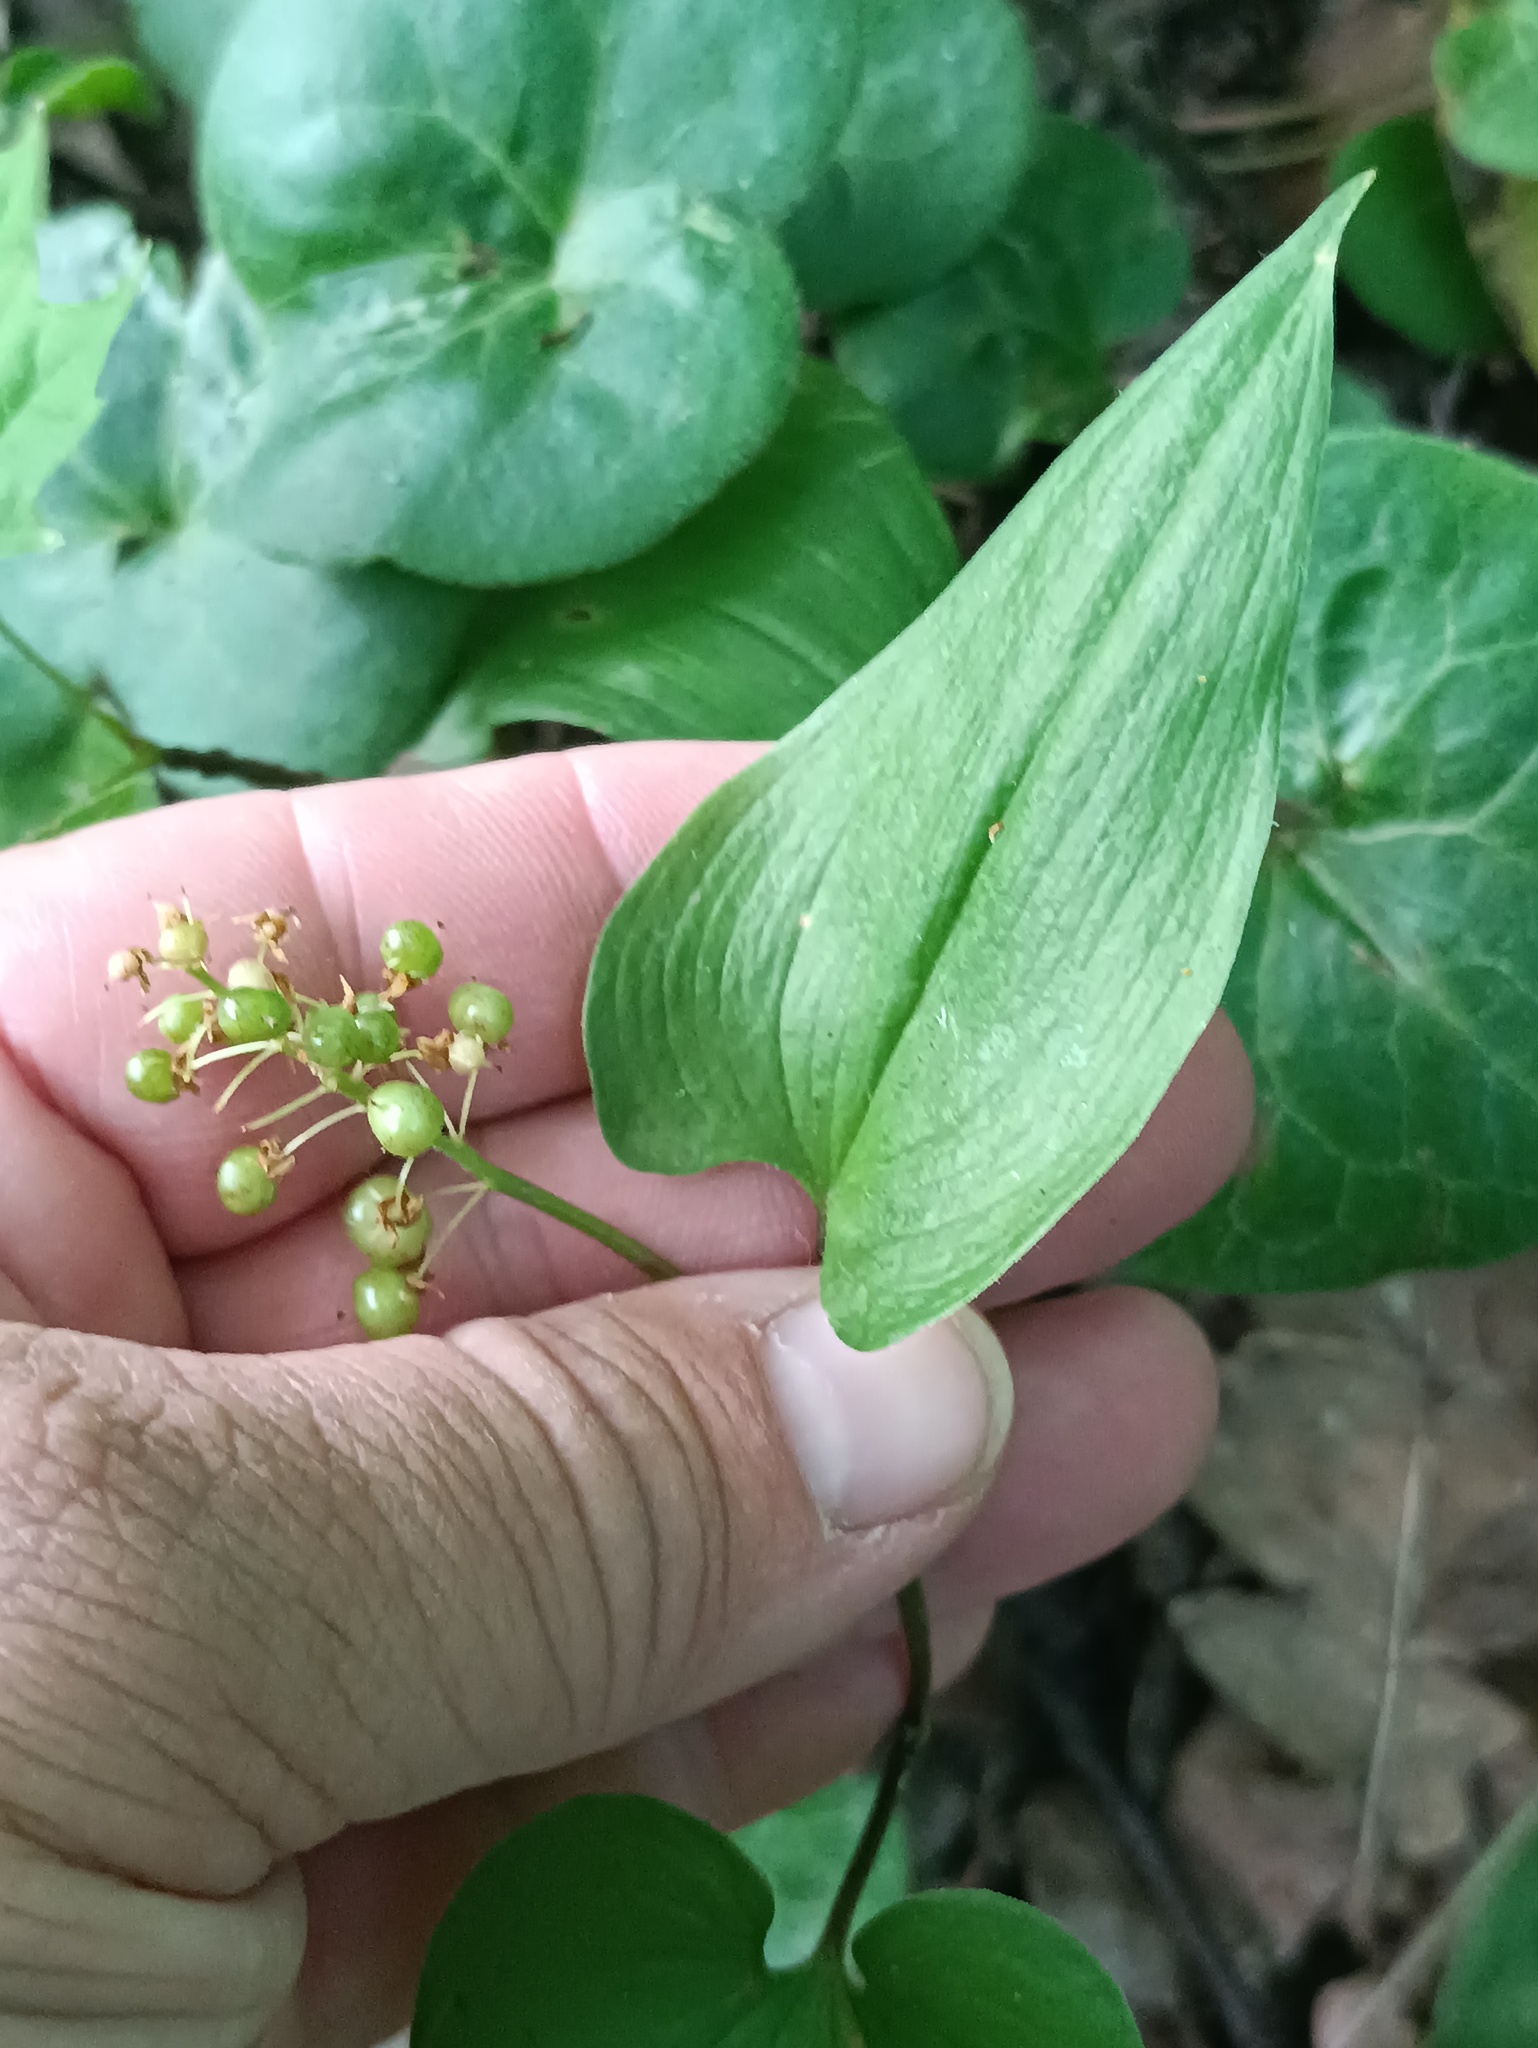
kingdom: Plantae
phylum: Tracheophyta
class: Liliopsida
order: Asparagales
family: Asparagaceae
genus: Maianthemum
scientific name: Maianthemum bifolium
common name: May lily
